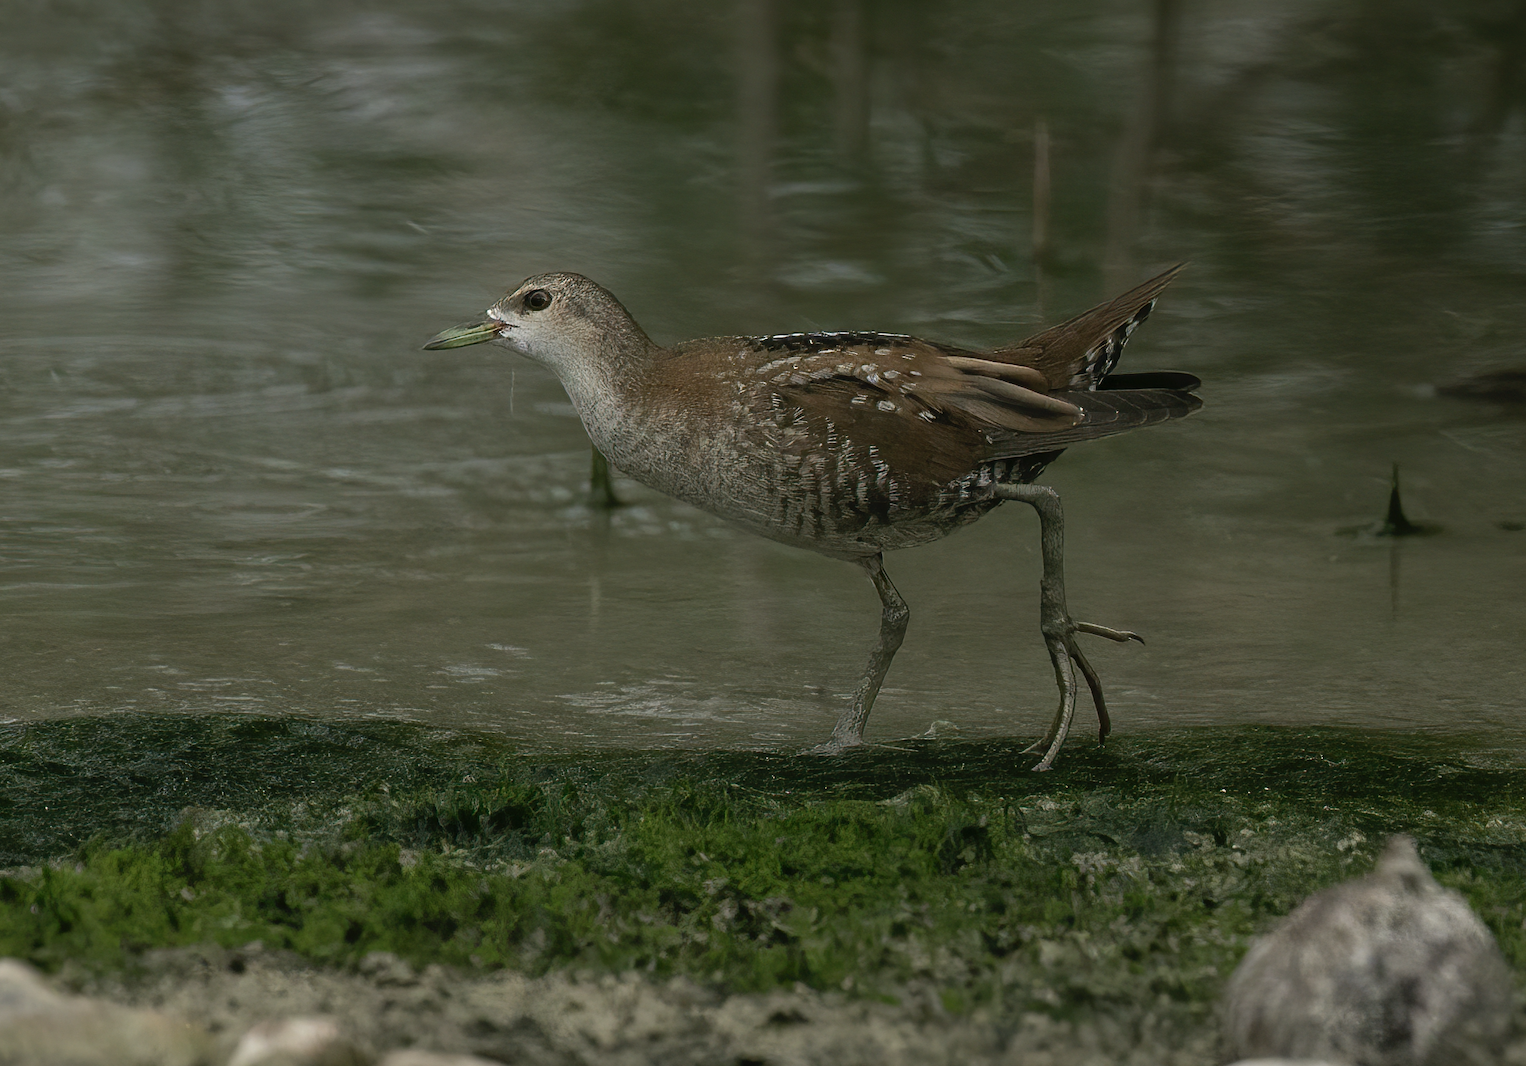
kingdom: Animalia
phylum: Chordata
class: Aves
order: Gruiformes
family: Rallidae
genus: Porzana
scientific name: Porzana parva
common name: Little crake
